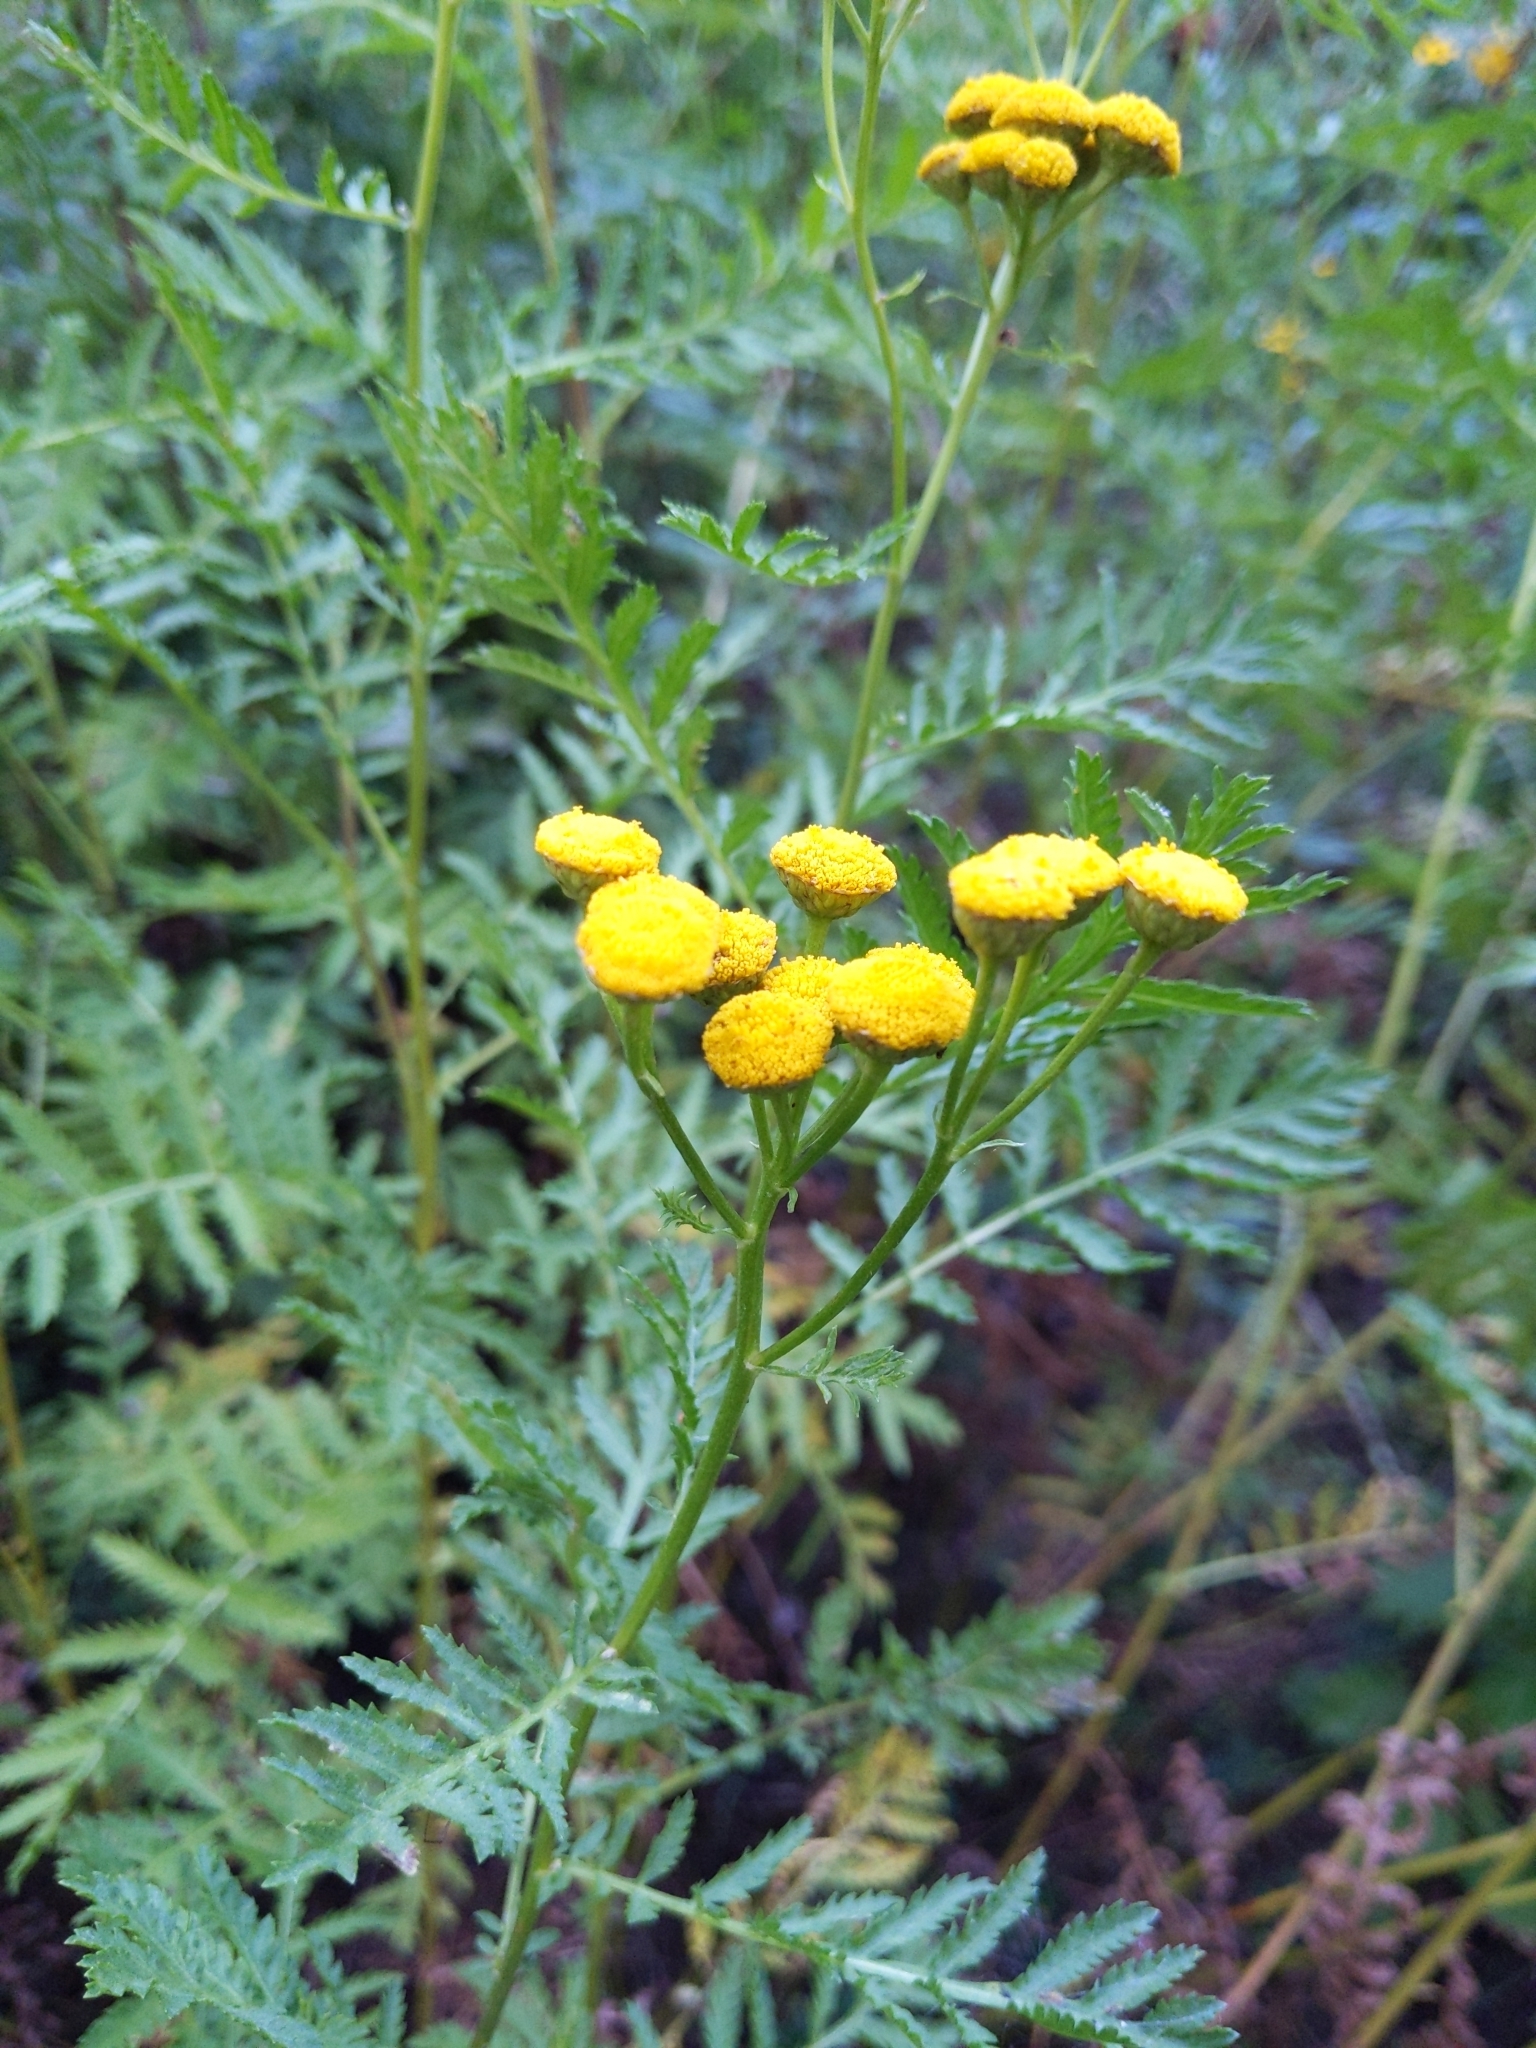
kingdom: Plantae
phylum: Tracheophyta
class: Magnoliopsida
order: Asterales
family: Asteraceae
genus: Tanacetum
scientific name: Tanacetum vulgare
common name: Common tansy
